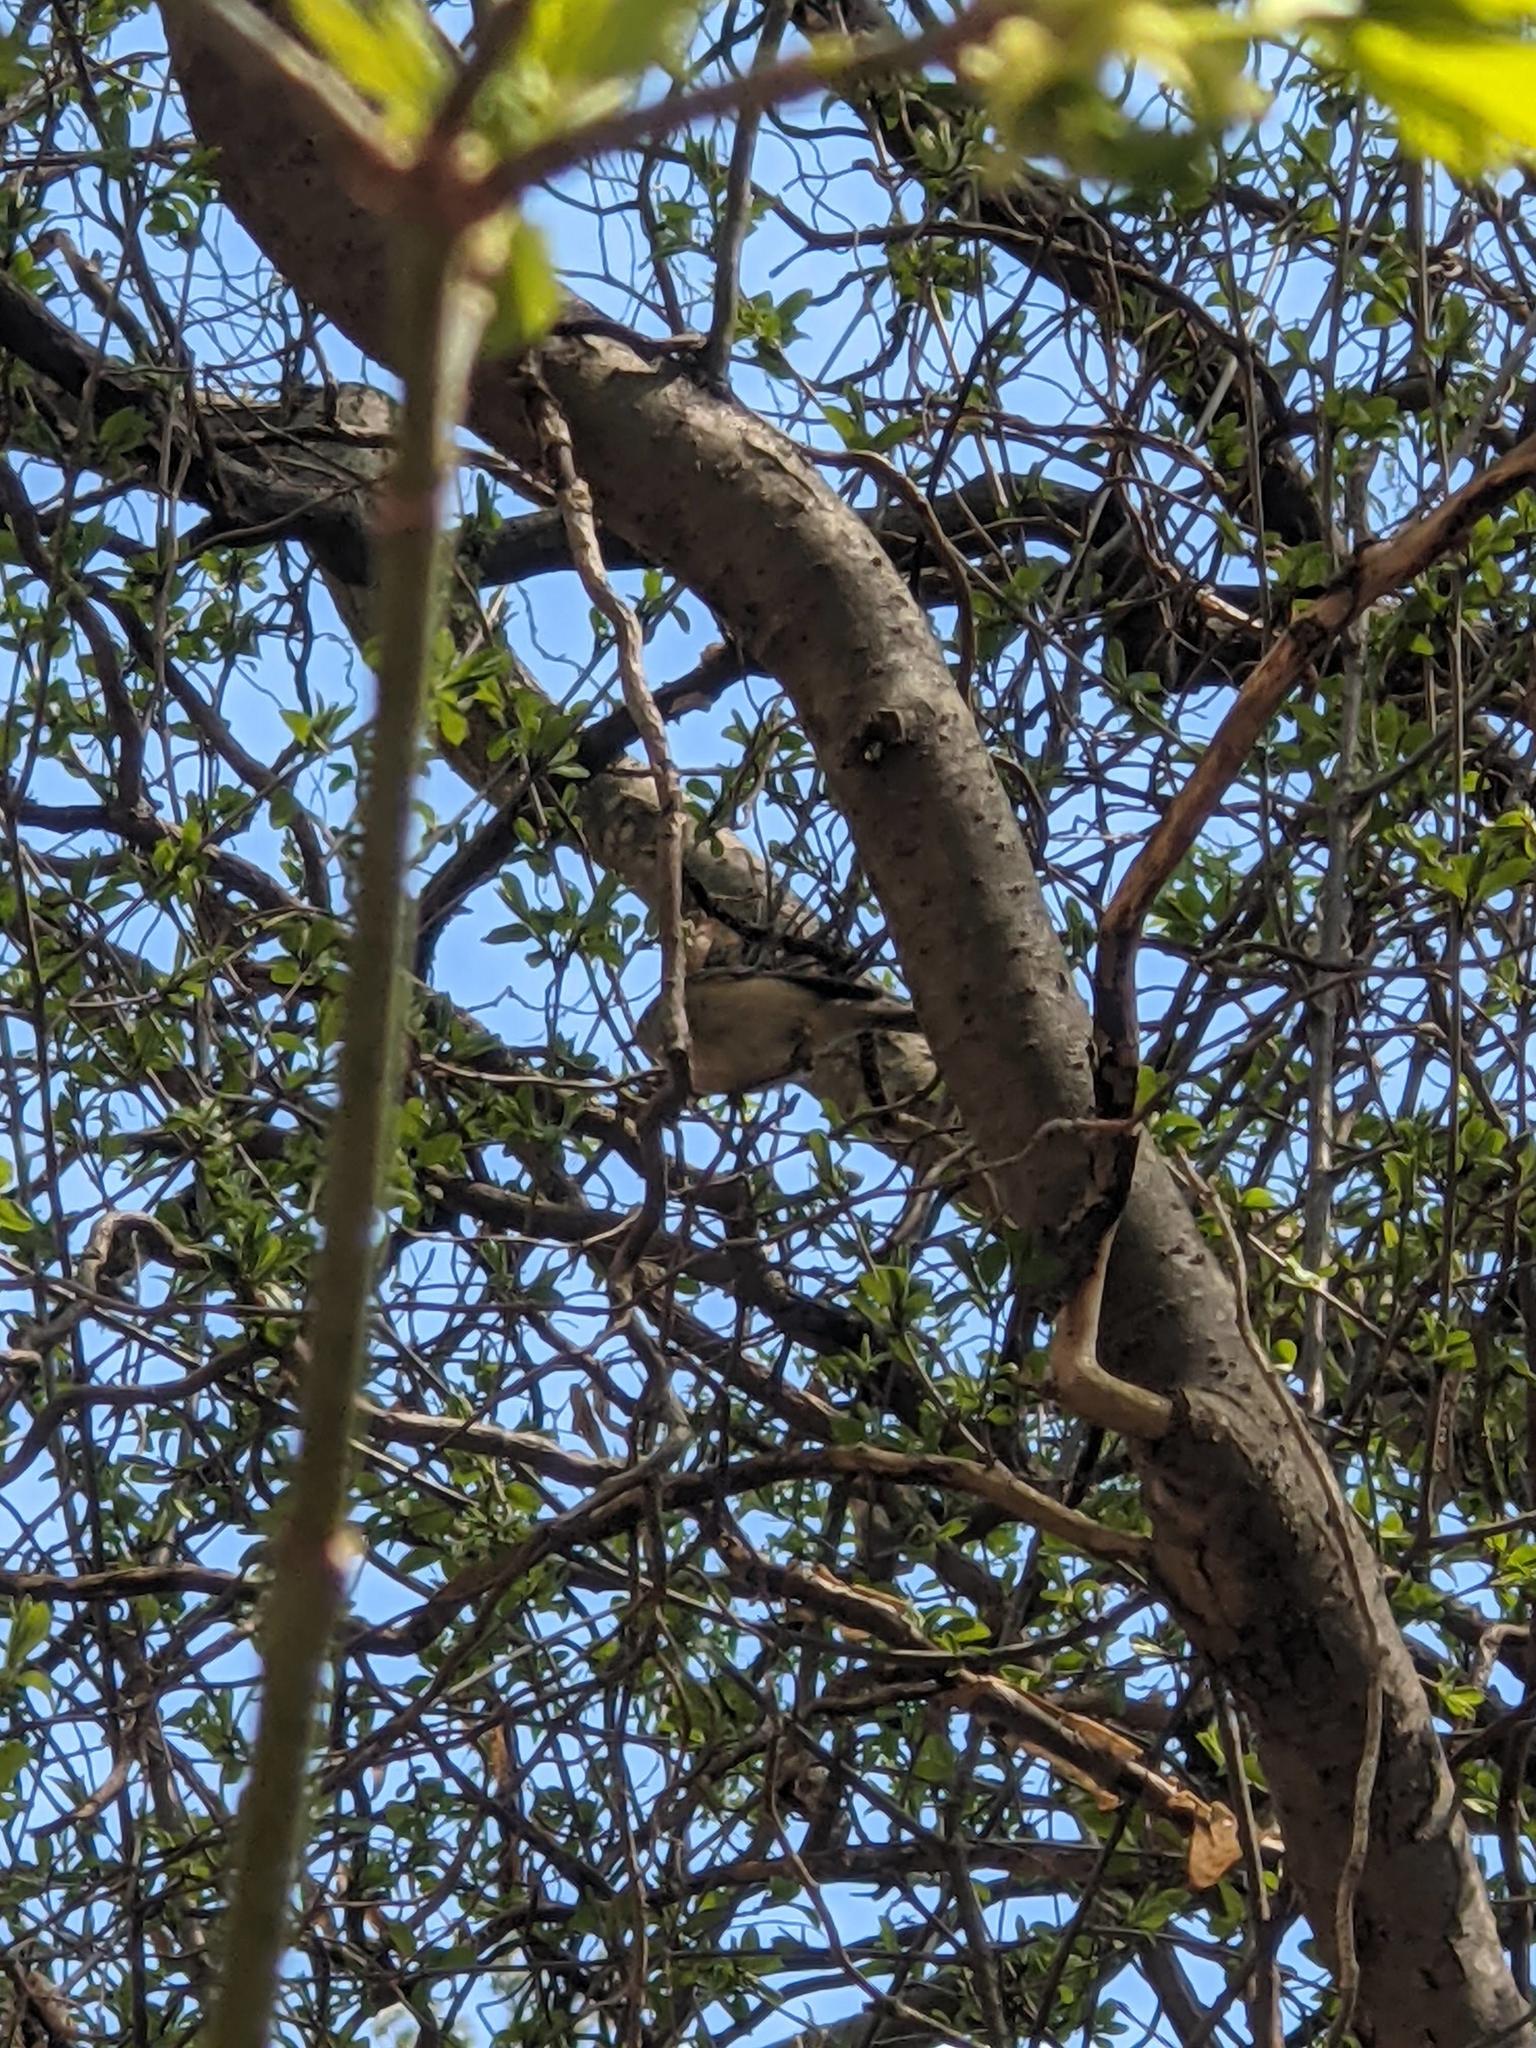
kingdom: Animalia
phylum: Chordata
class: Aves
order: Passeriformes
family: Regulidae
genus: Regulus
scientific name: Regulus calendula
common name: Ruby-crowned kinglet
